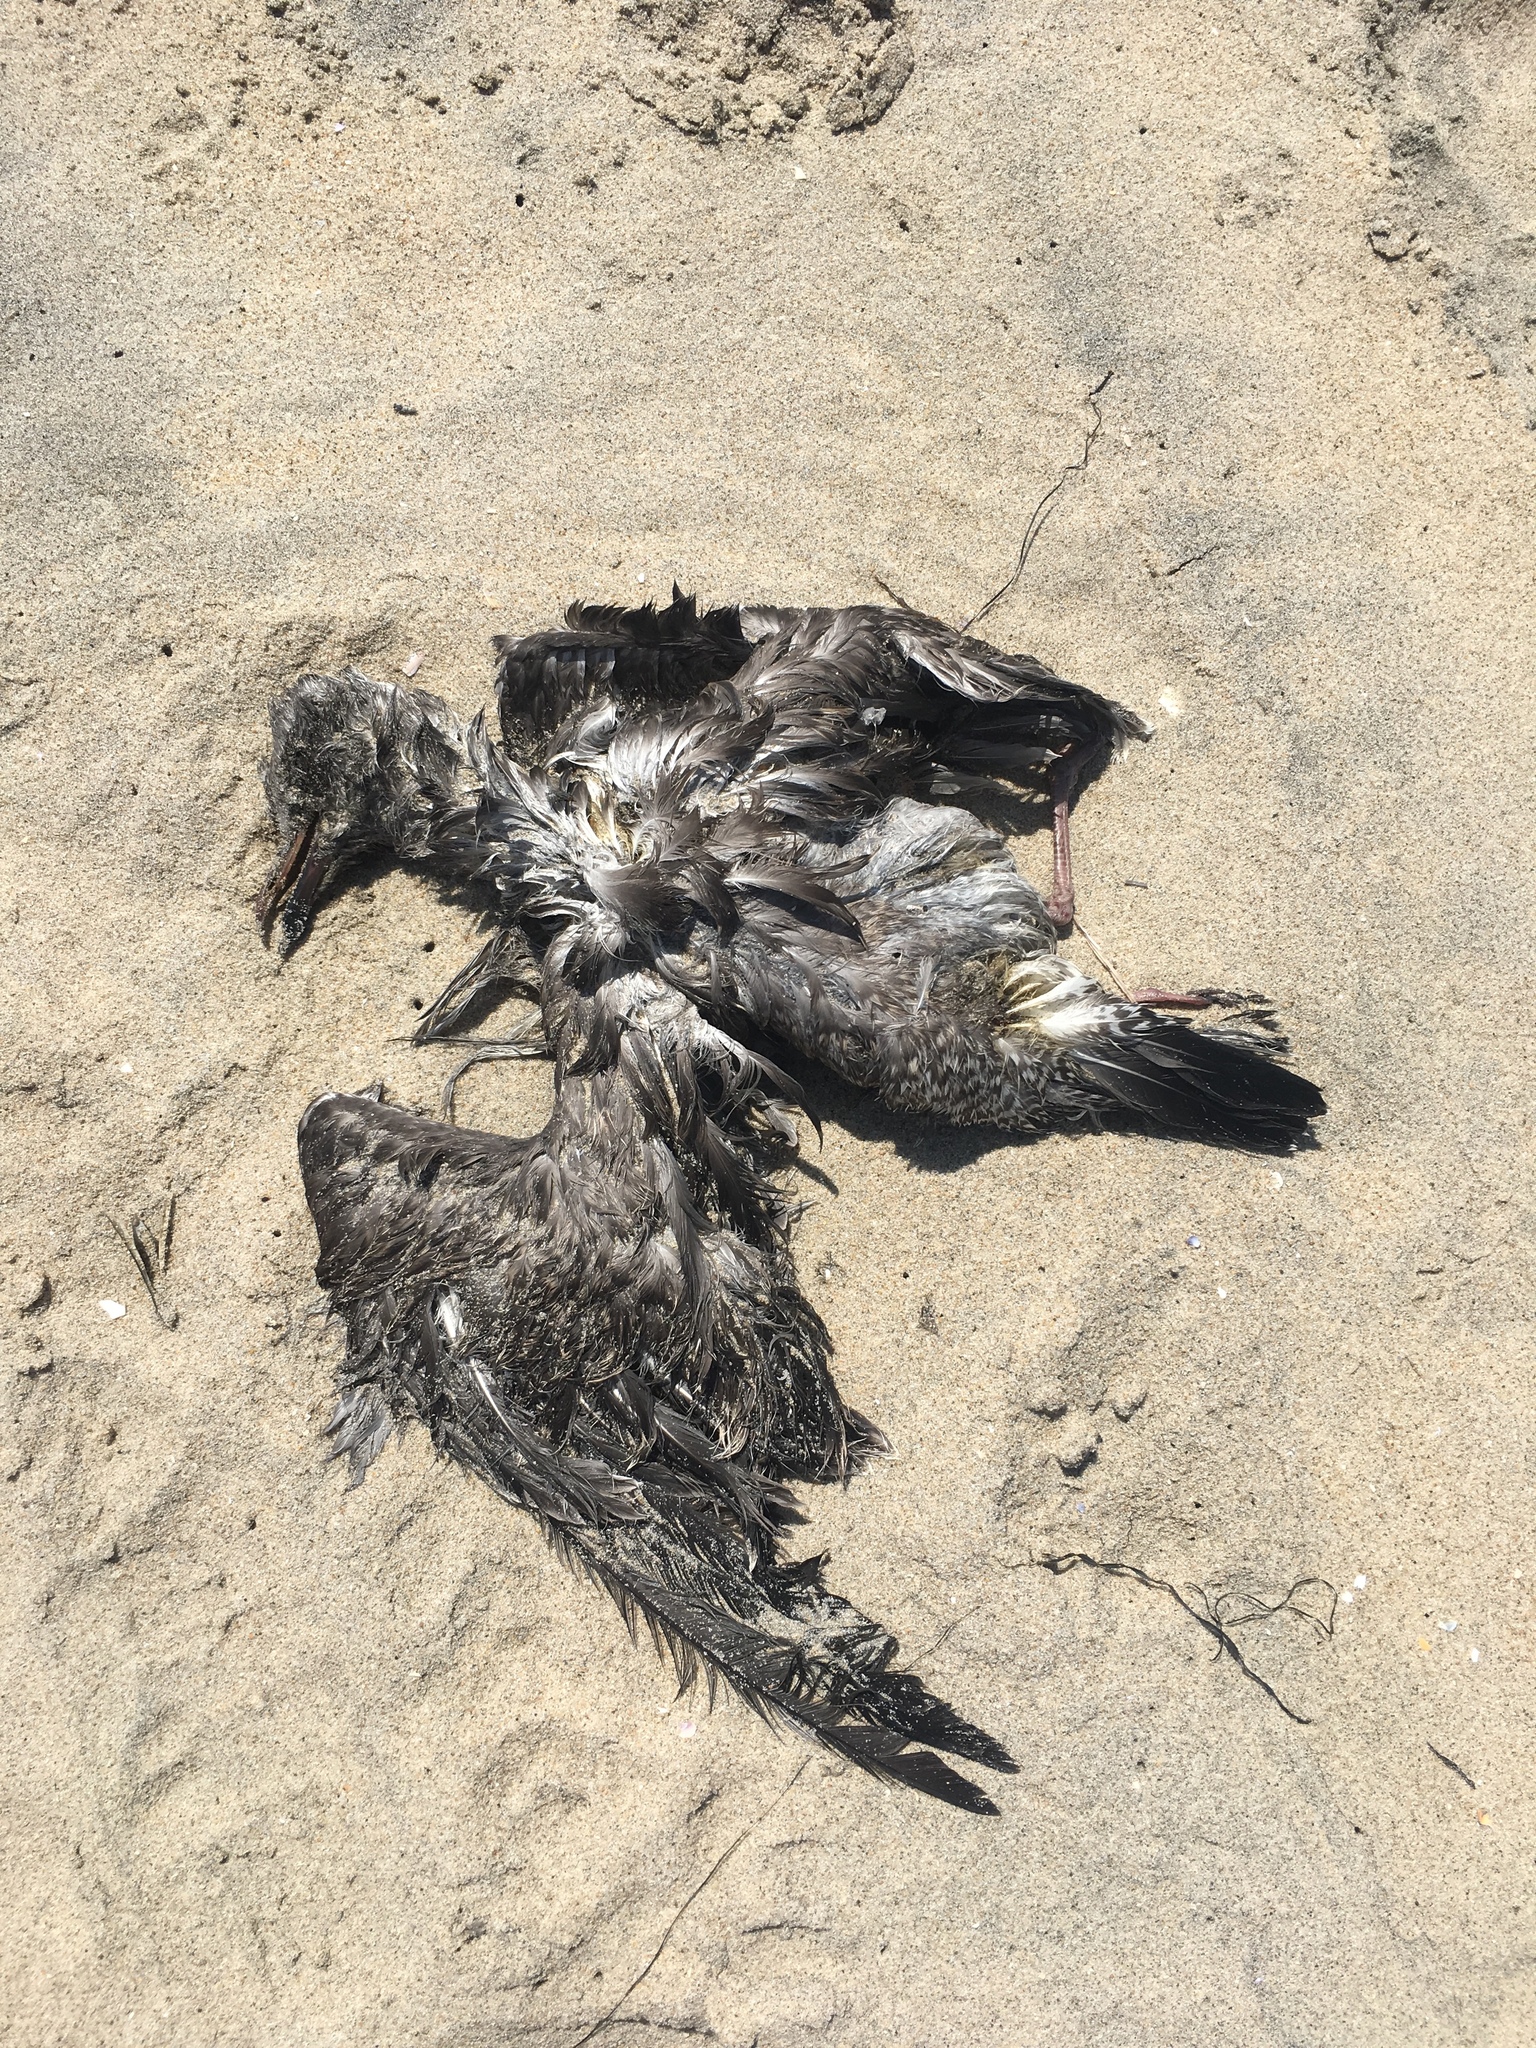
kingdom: Animalia
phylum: Chordata
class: Aves
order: Charadriiformes
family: Laridae
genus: Larus
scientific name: Larus occidentalis
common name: Western gull
